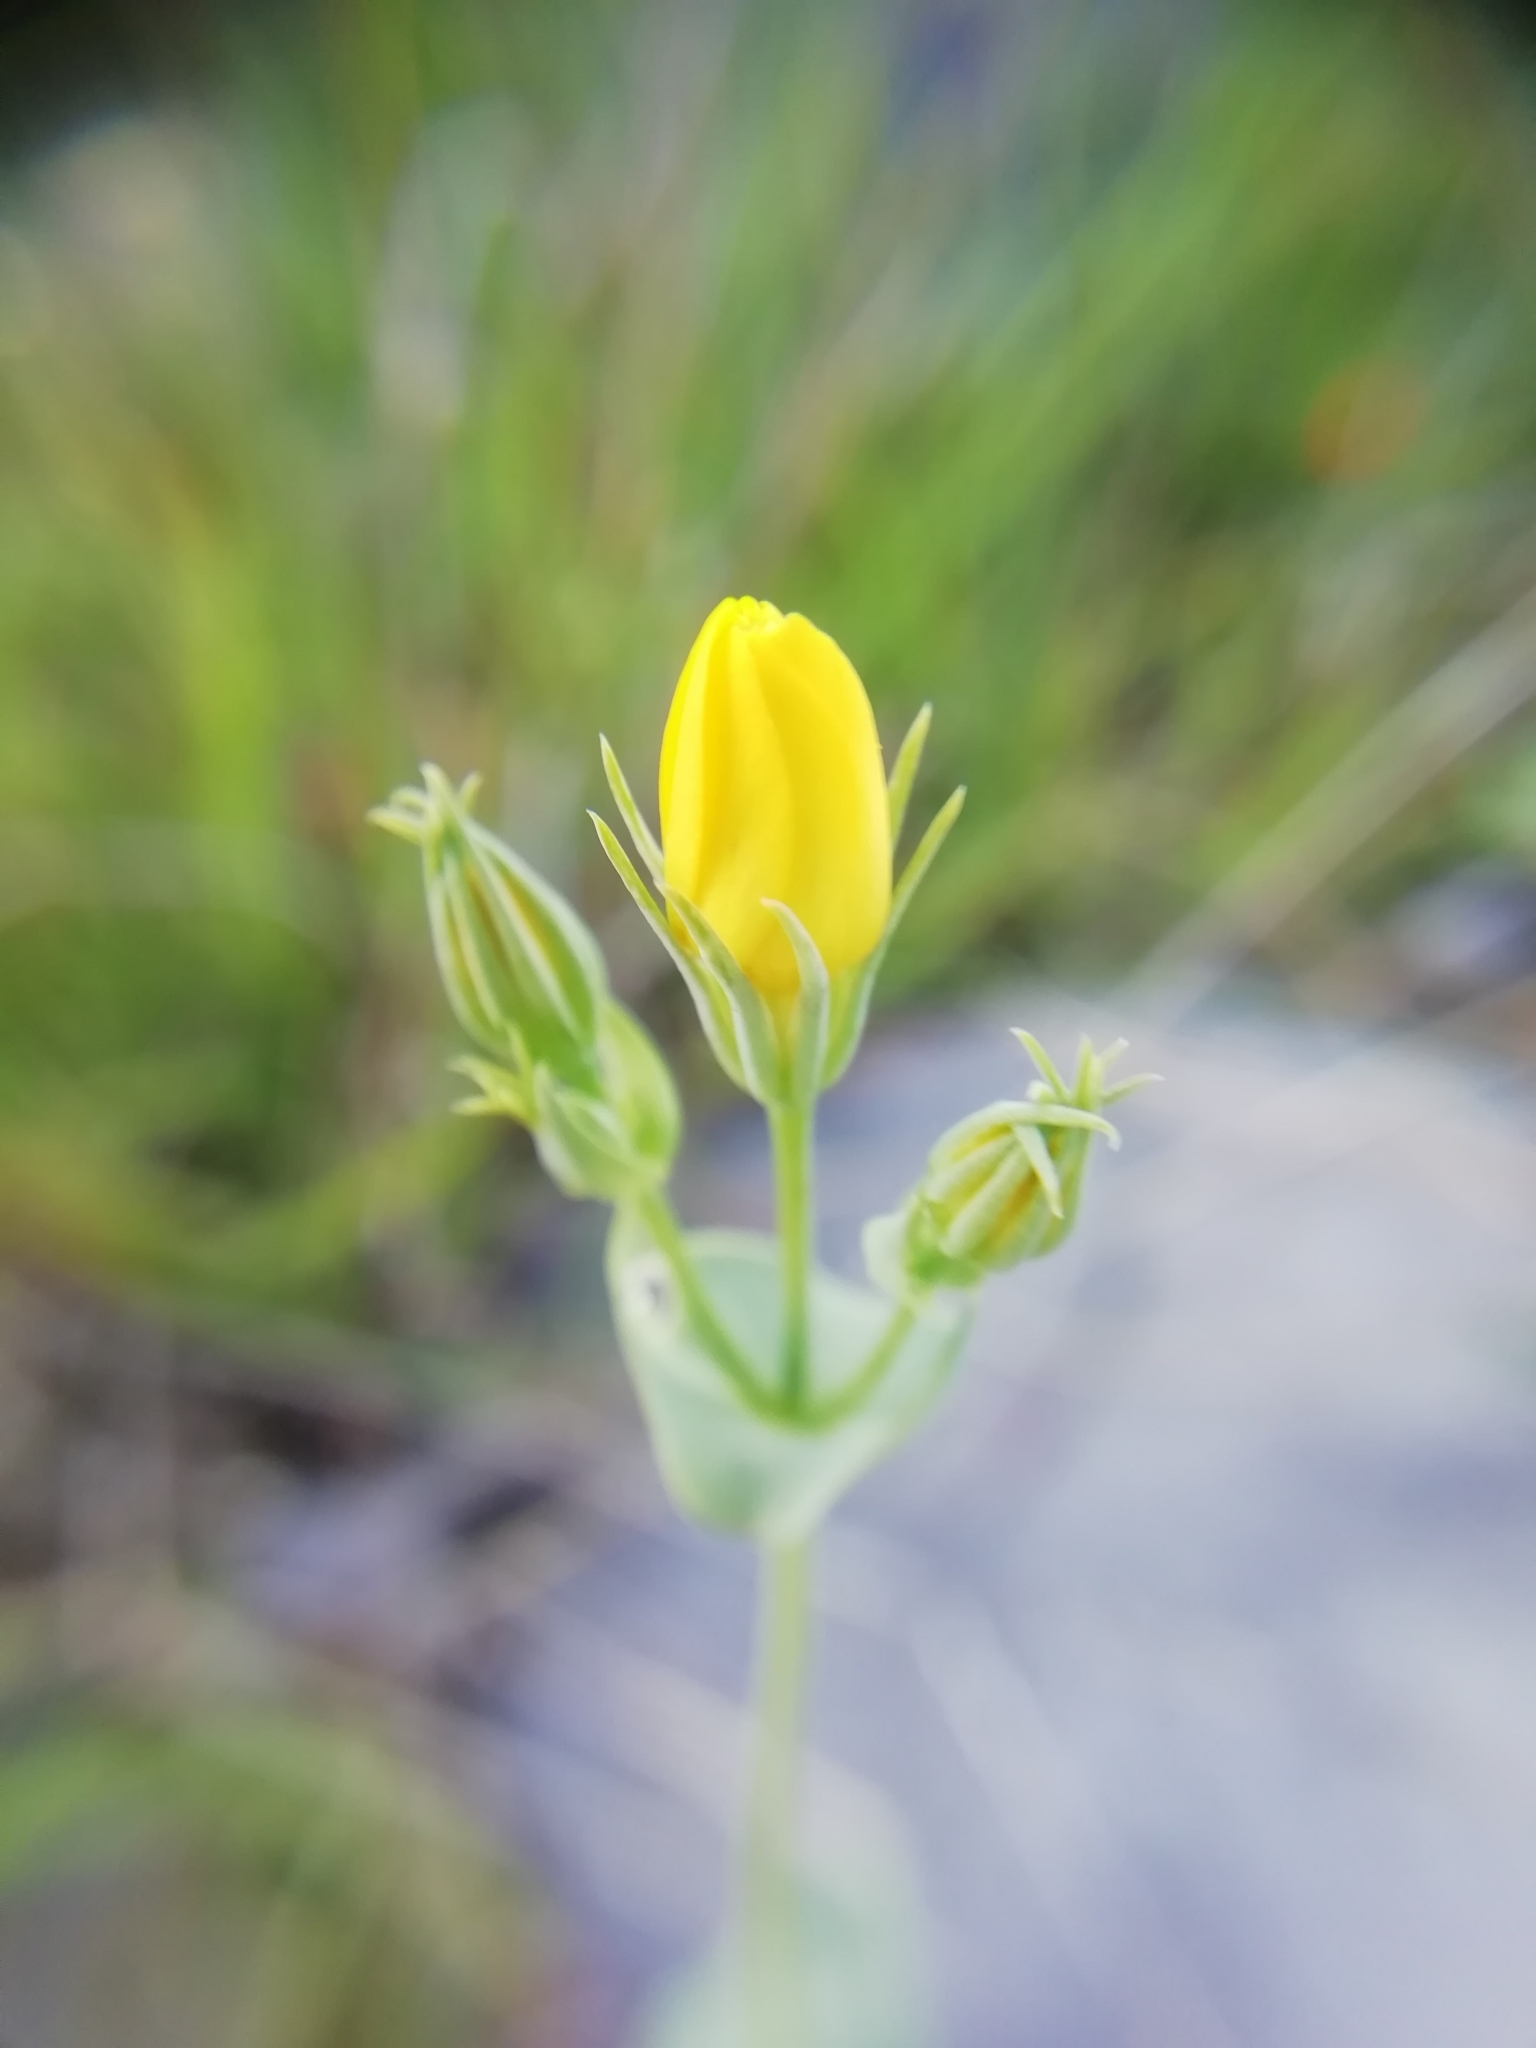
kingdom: Plantae
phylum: Tracheophyta
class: Magnoliopsida
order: Gentianales
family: Gentianaceae
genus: Blackstonia
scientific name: Blackstonia perfoliata
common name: Yellow-wort
